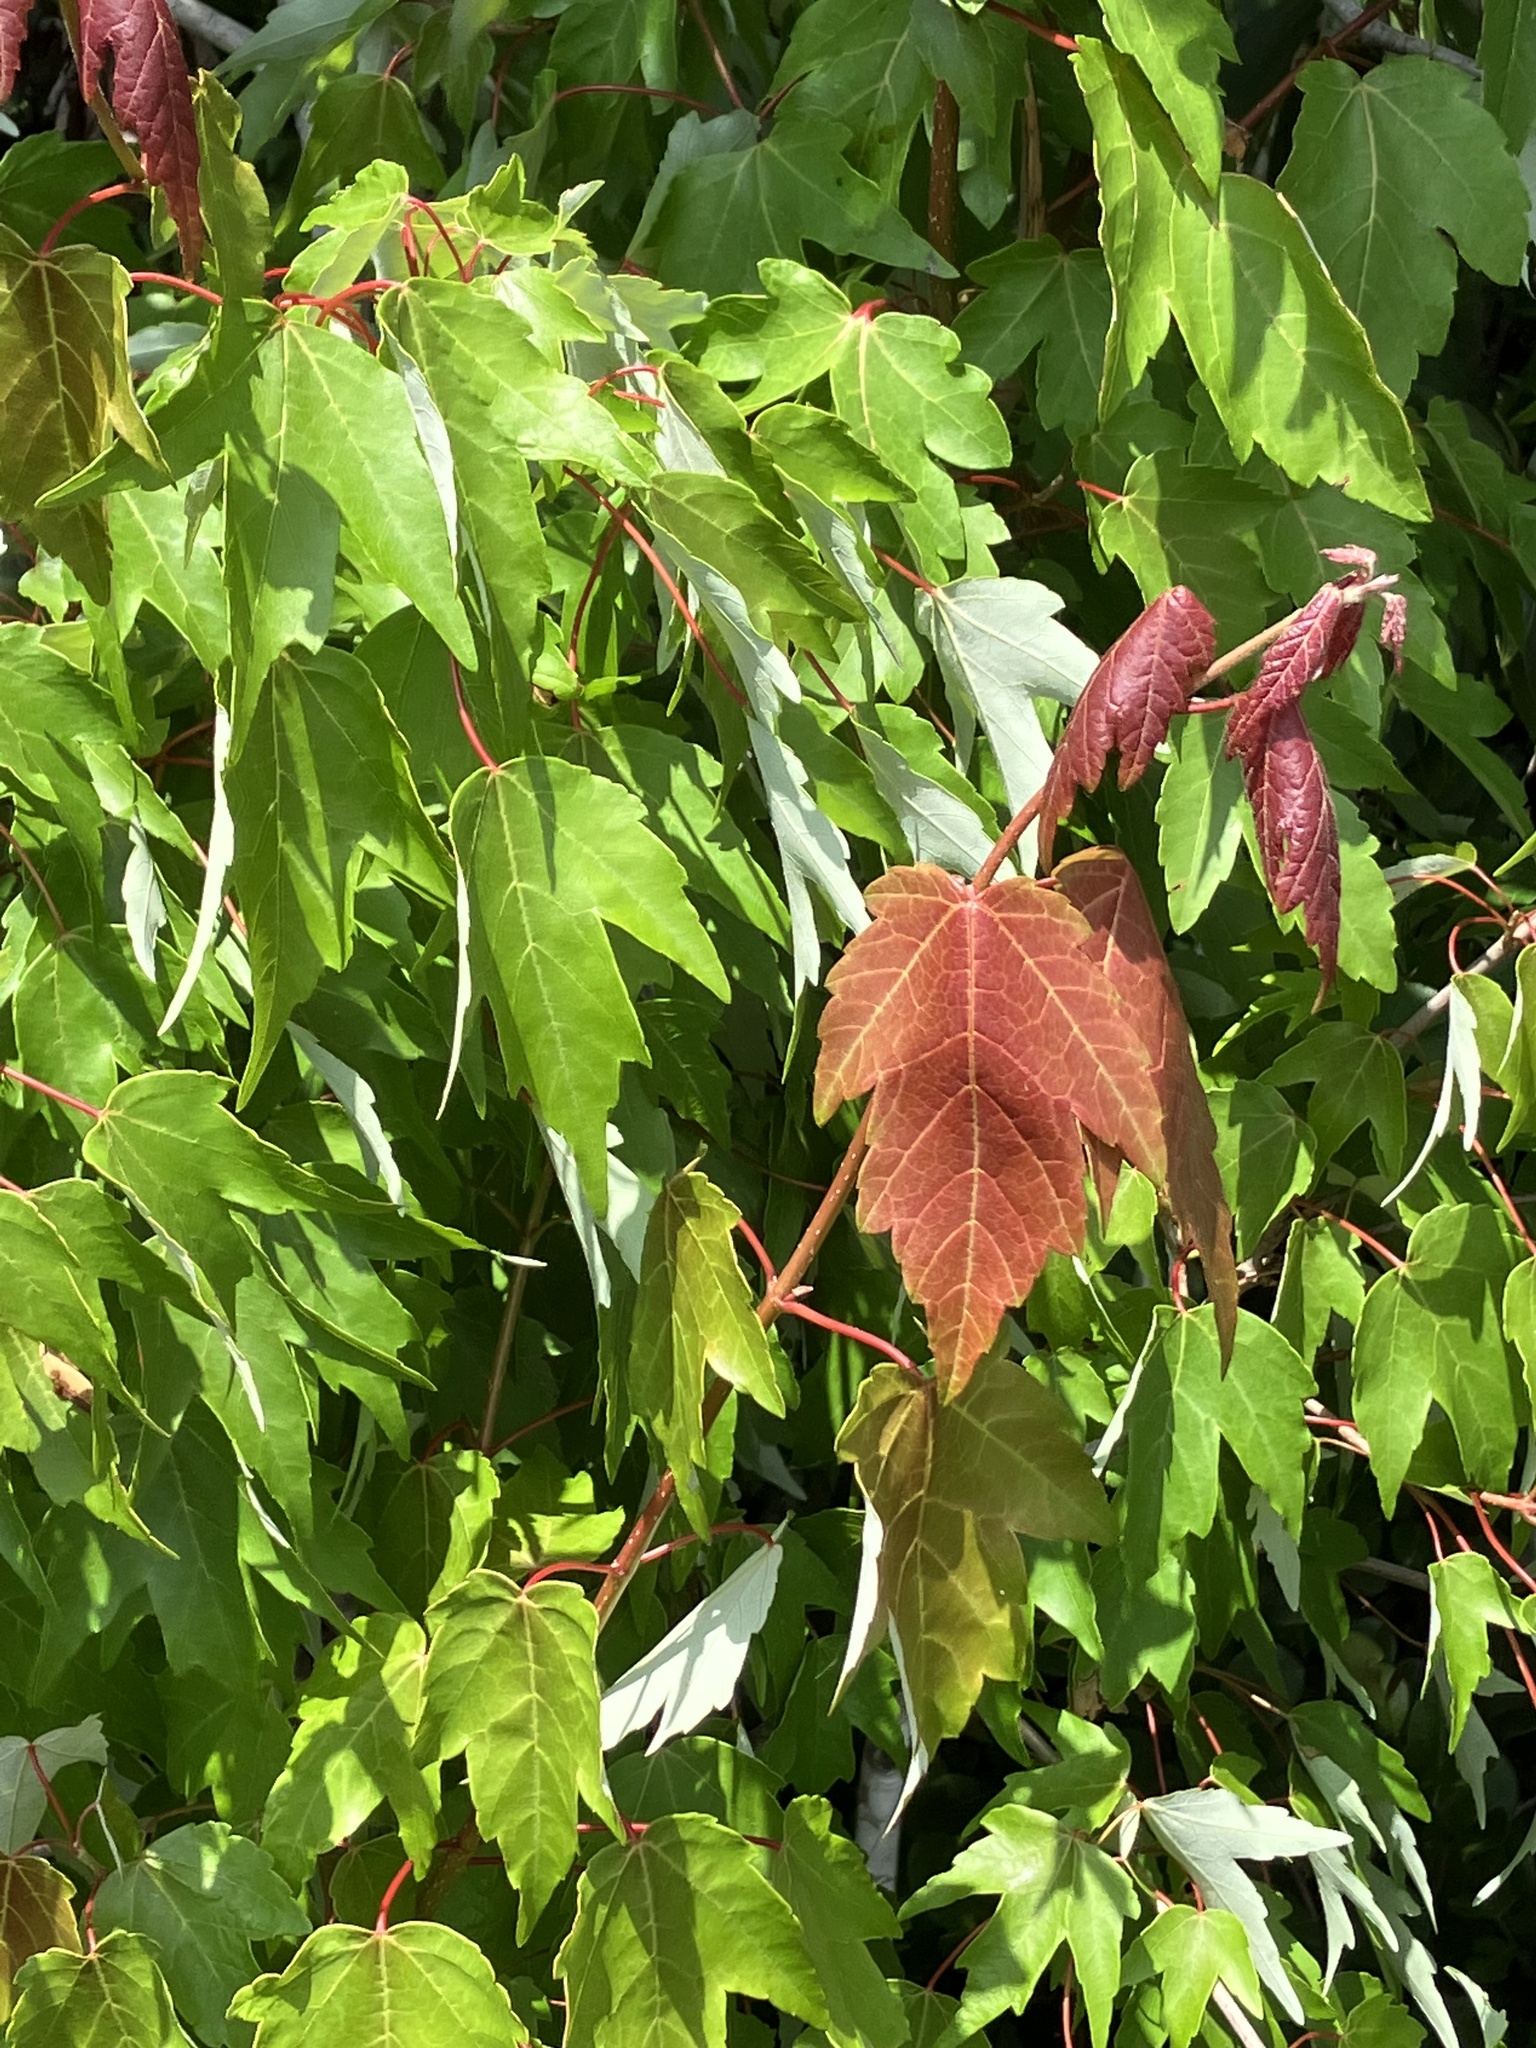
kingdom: Plantae
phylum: Tracheophyta
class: Magnoliopsida
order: Sapindales
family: Sapindaceae
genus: Acer
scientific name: Acer rubrum
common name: Red maple
